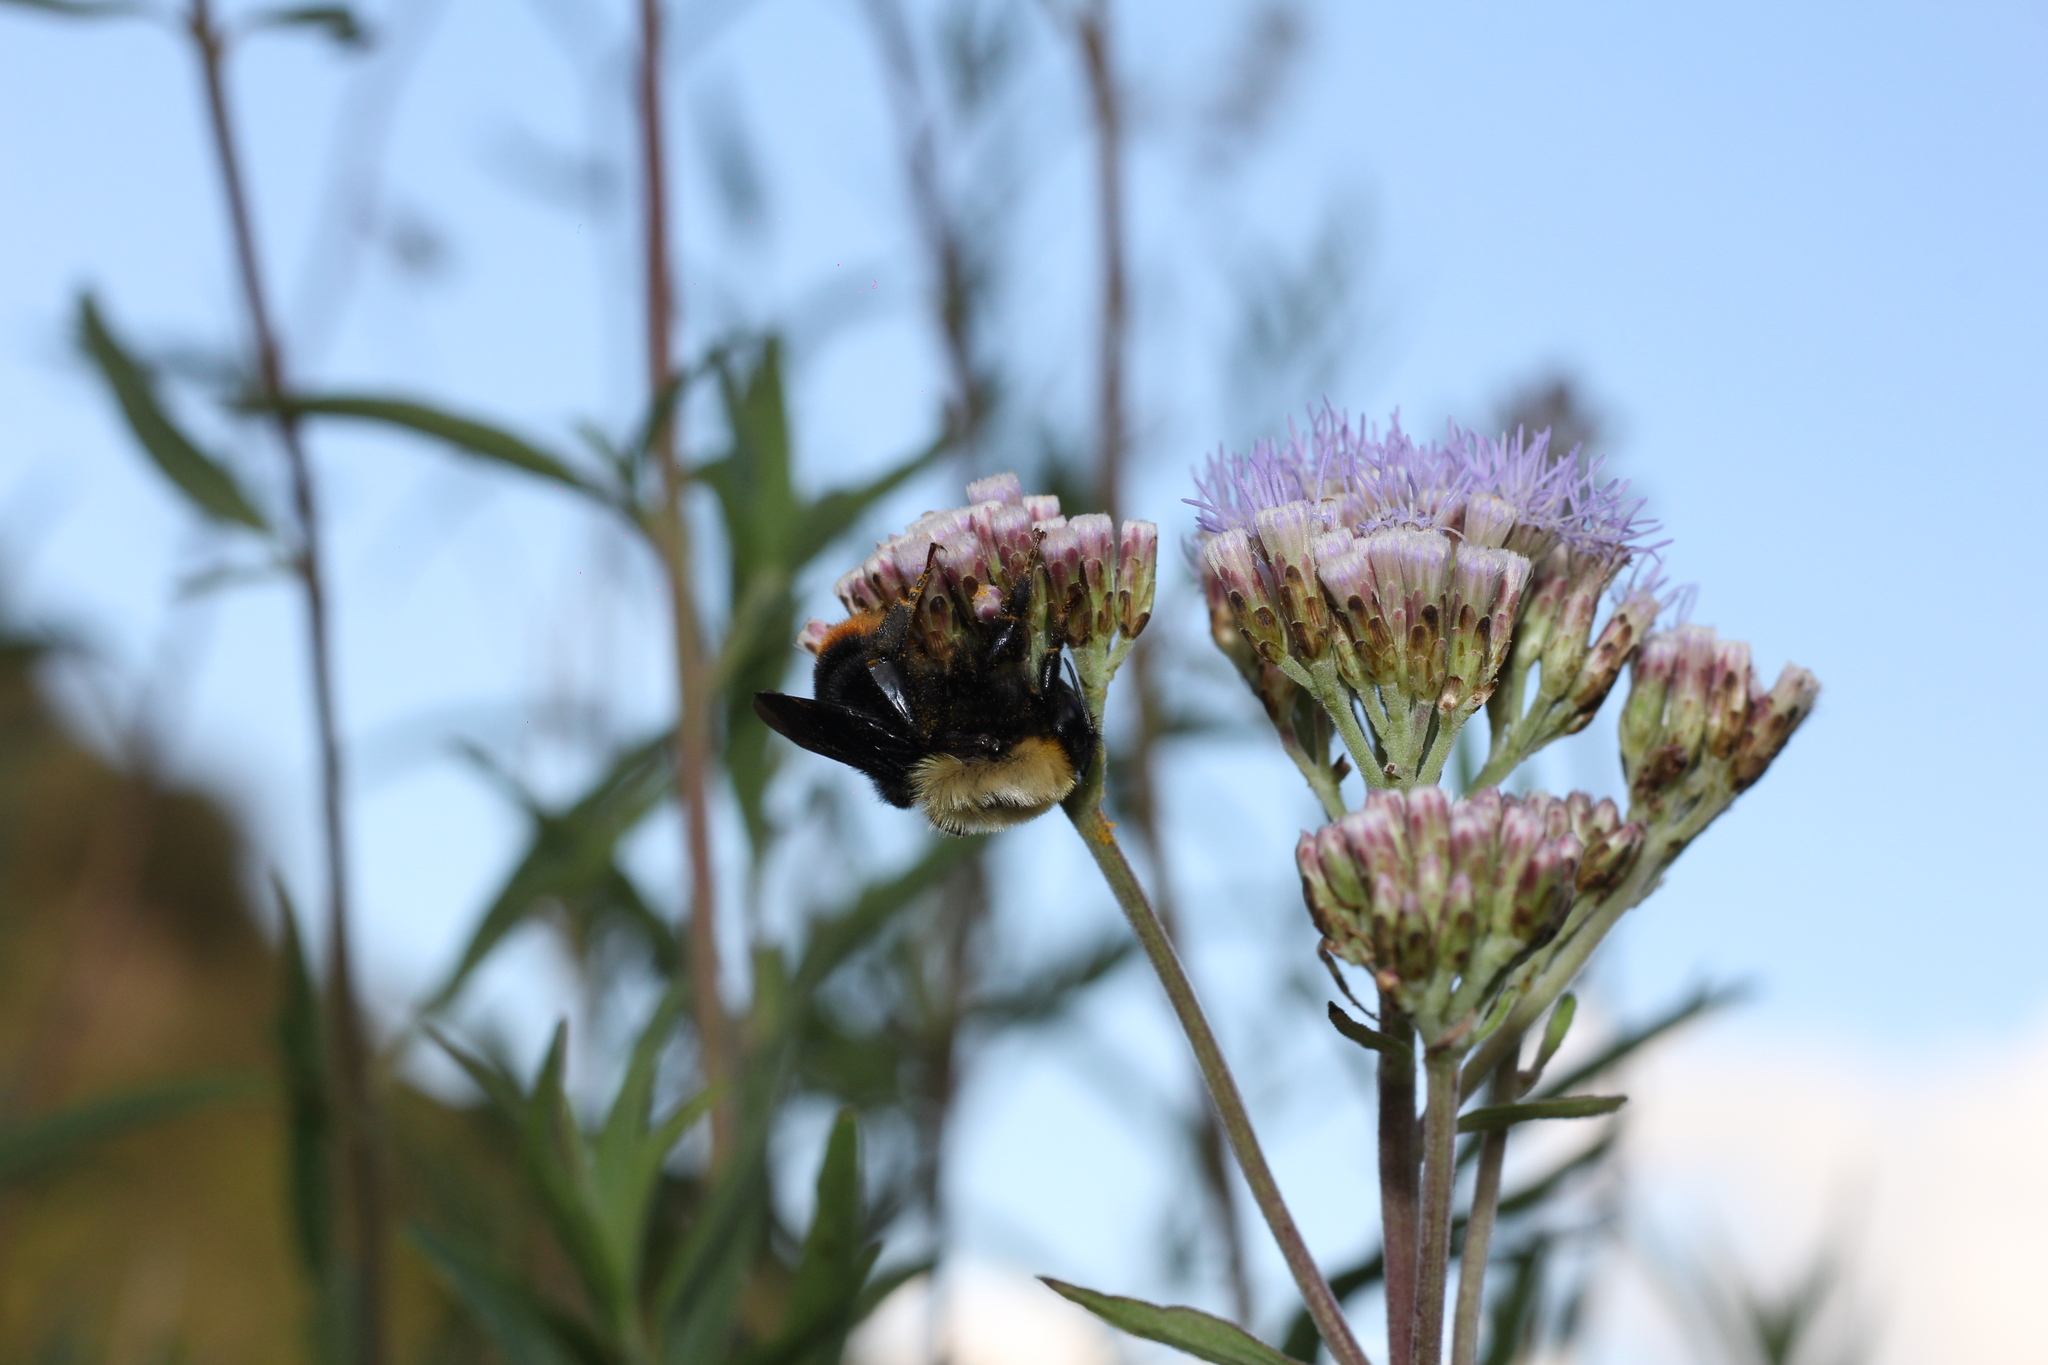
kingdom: Animalia
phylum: Arthropoda
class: Insecta
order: Hymenoptera
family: Apidae
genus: Bombus
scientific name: Bombus bellicosus
